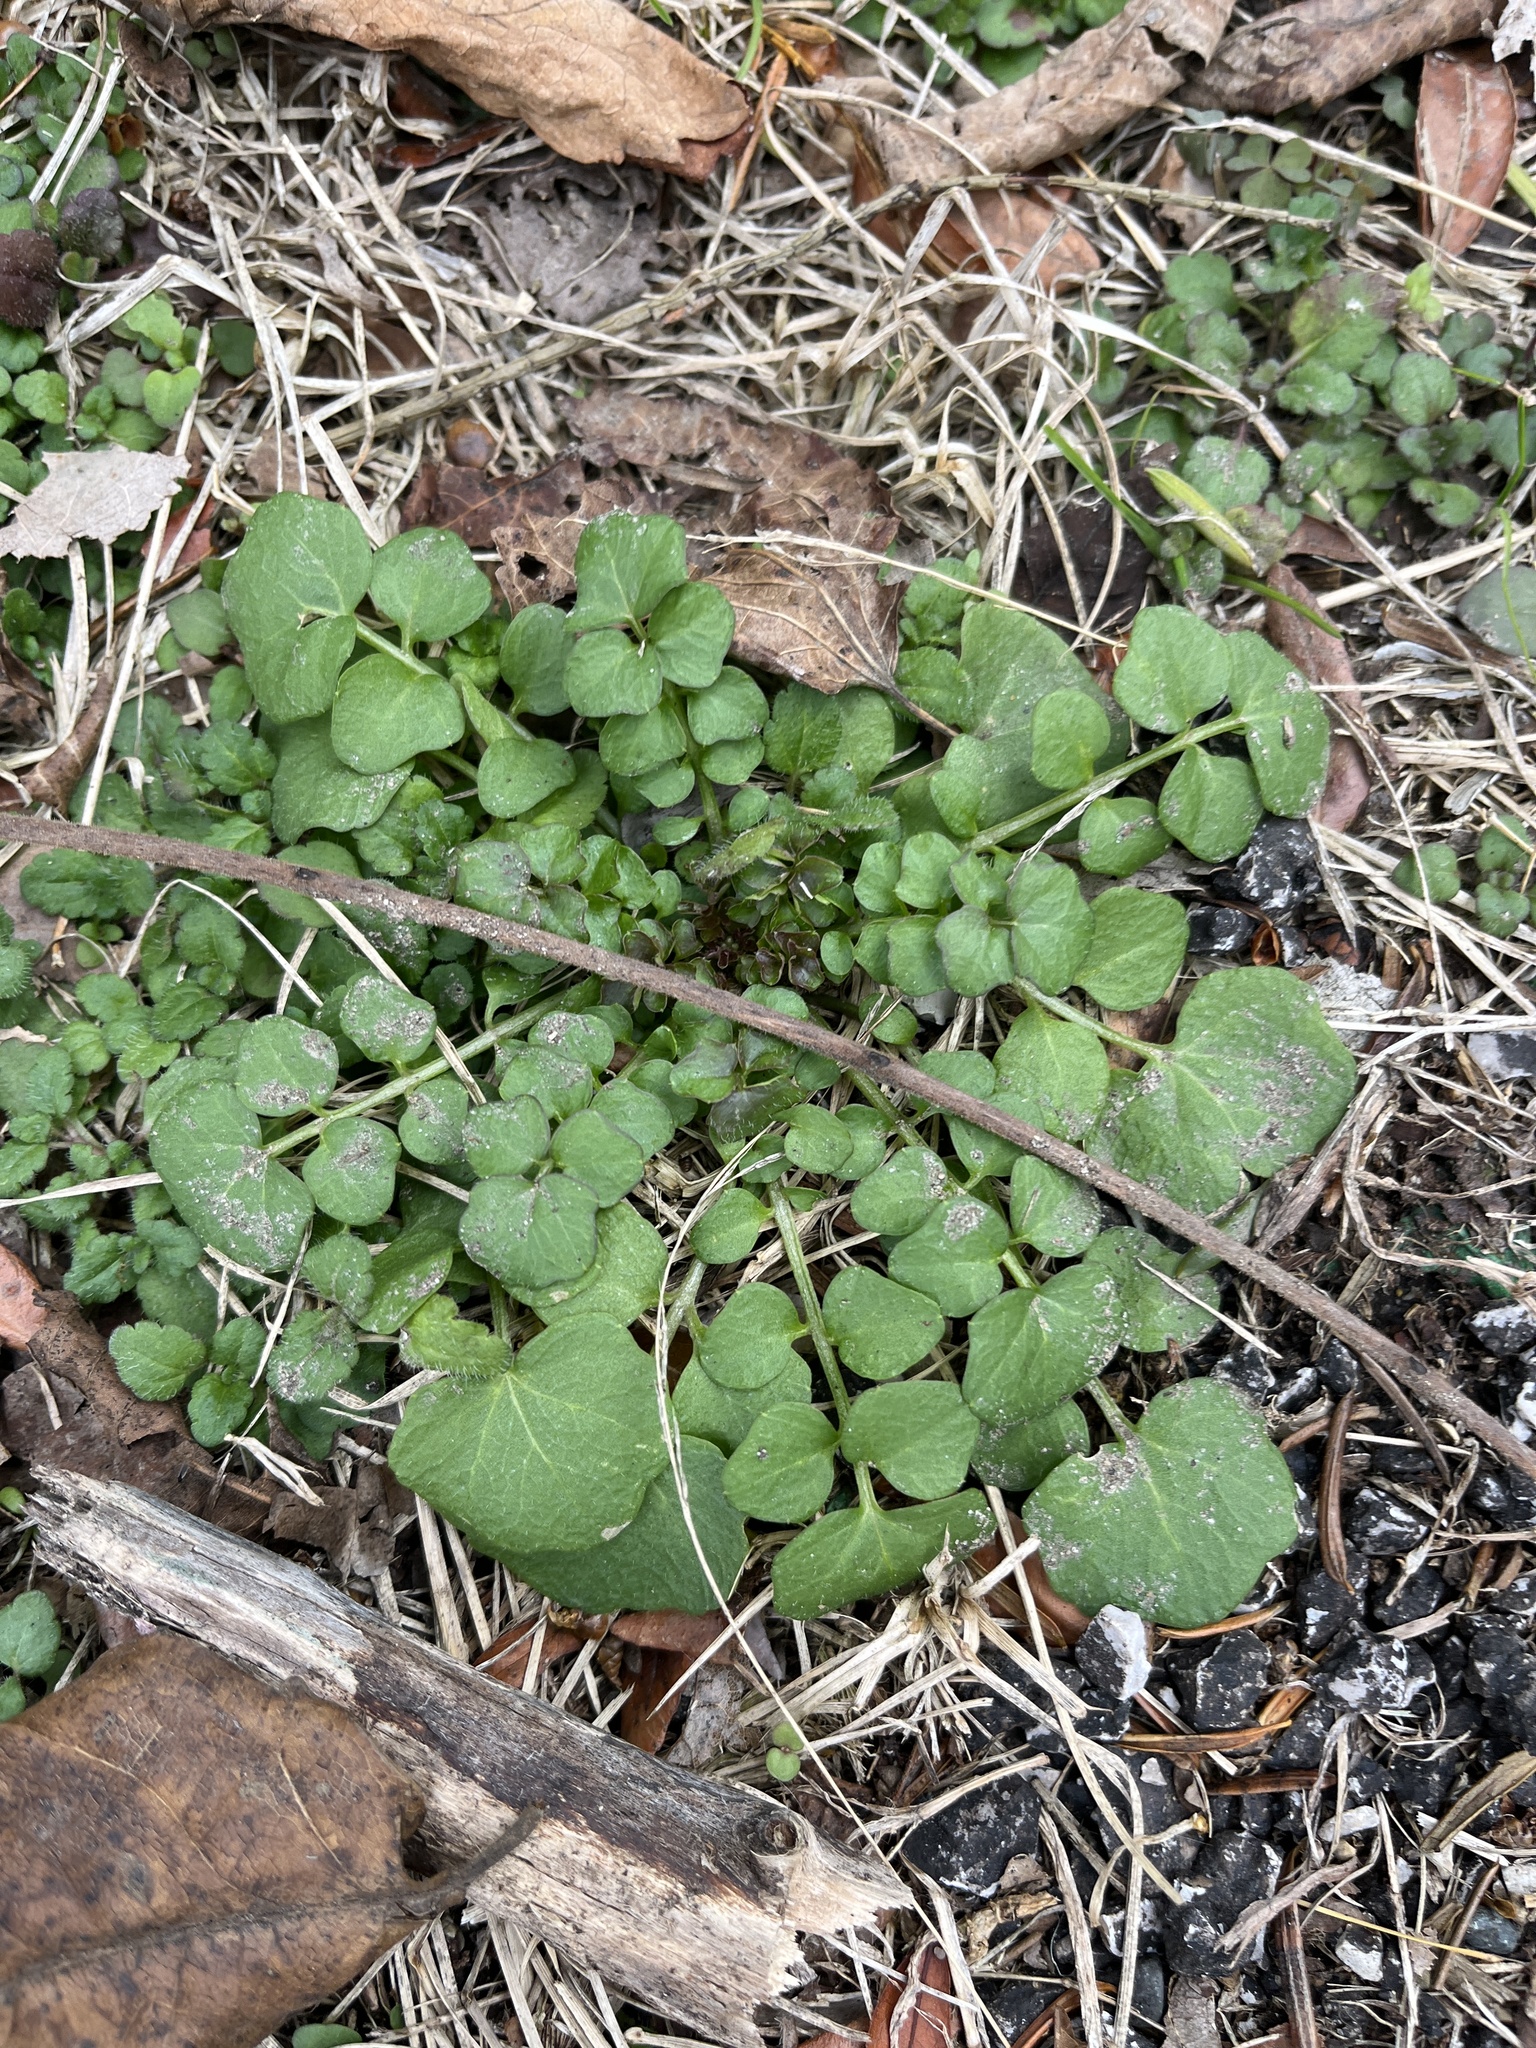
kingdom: Plantae
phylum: Tracheophyta
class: Magnoliopsida
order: Brassicales
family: Brassicaceae
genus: Cardamine
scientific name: Cardamine hirsuta
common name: Hairy bittercress
